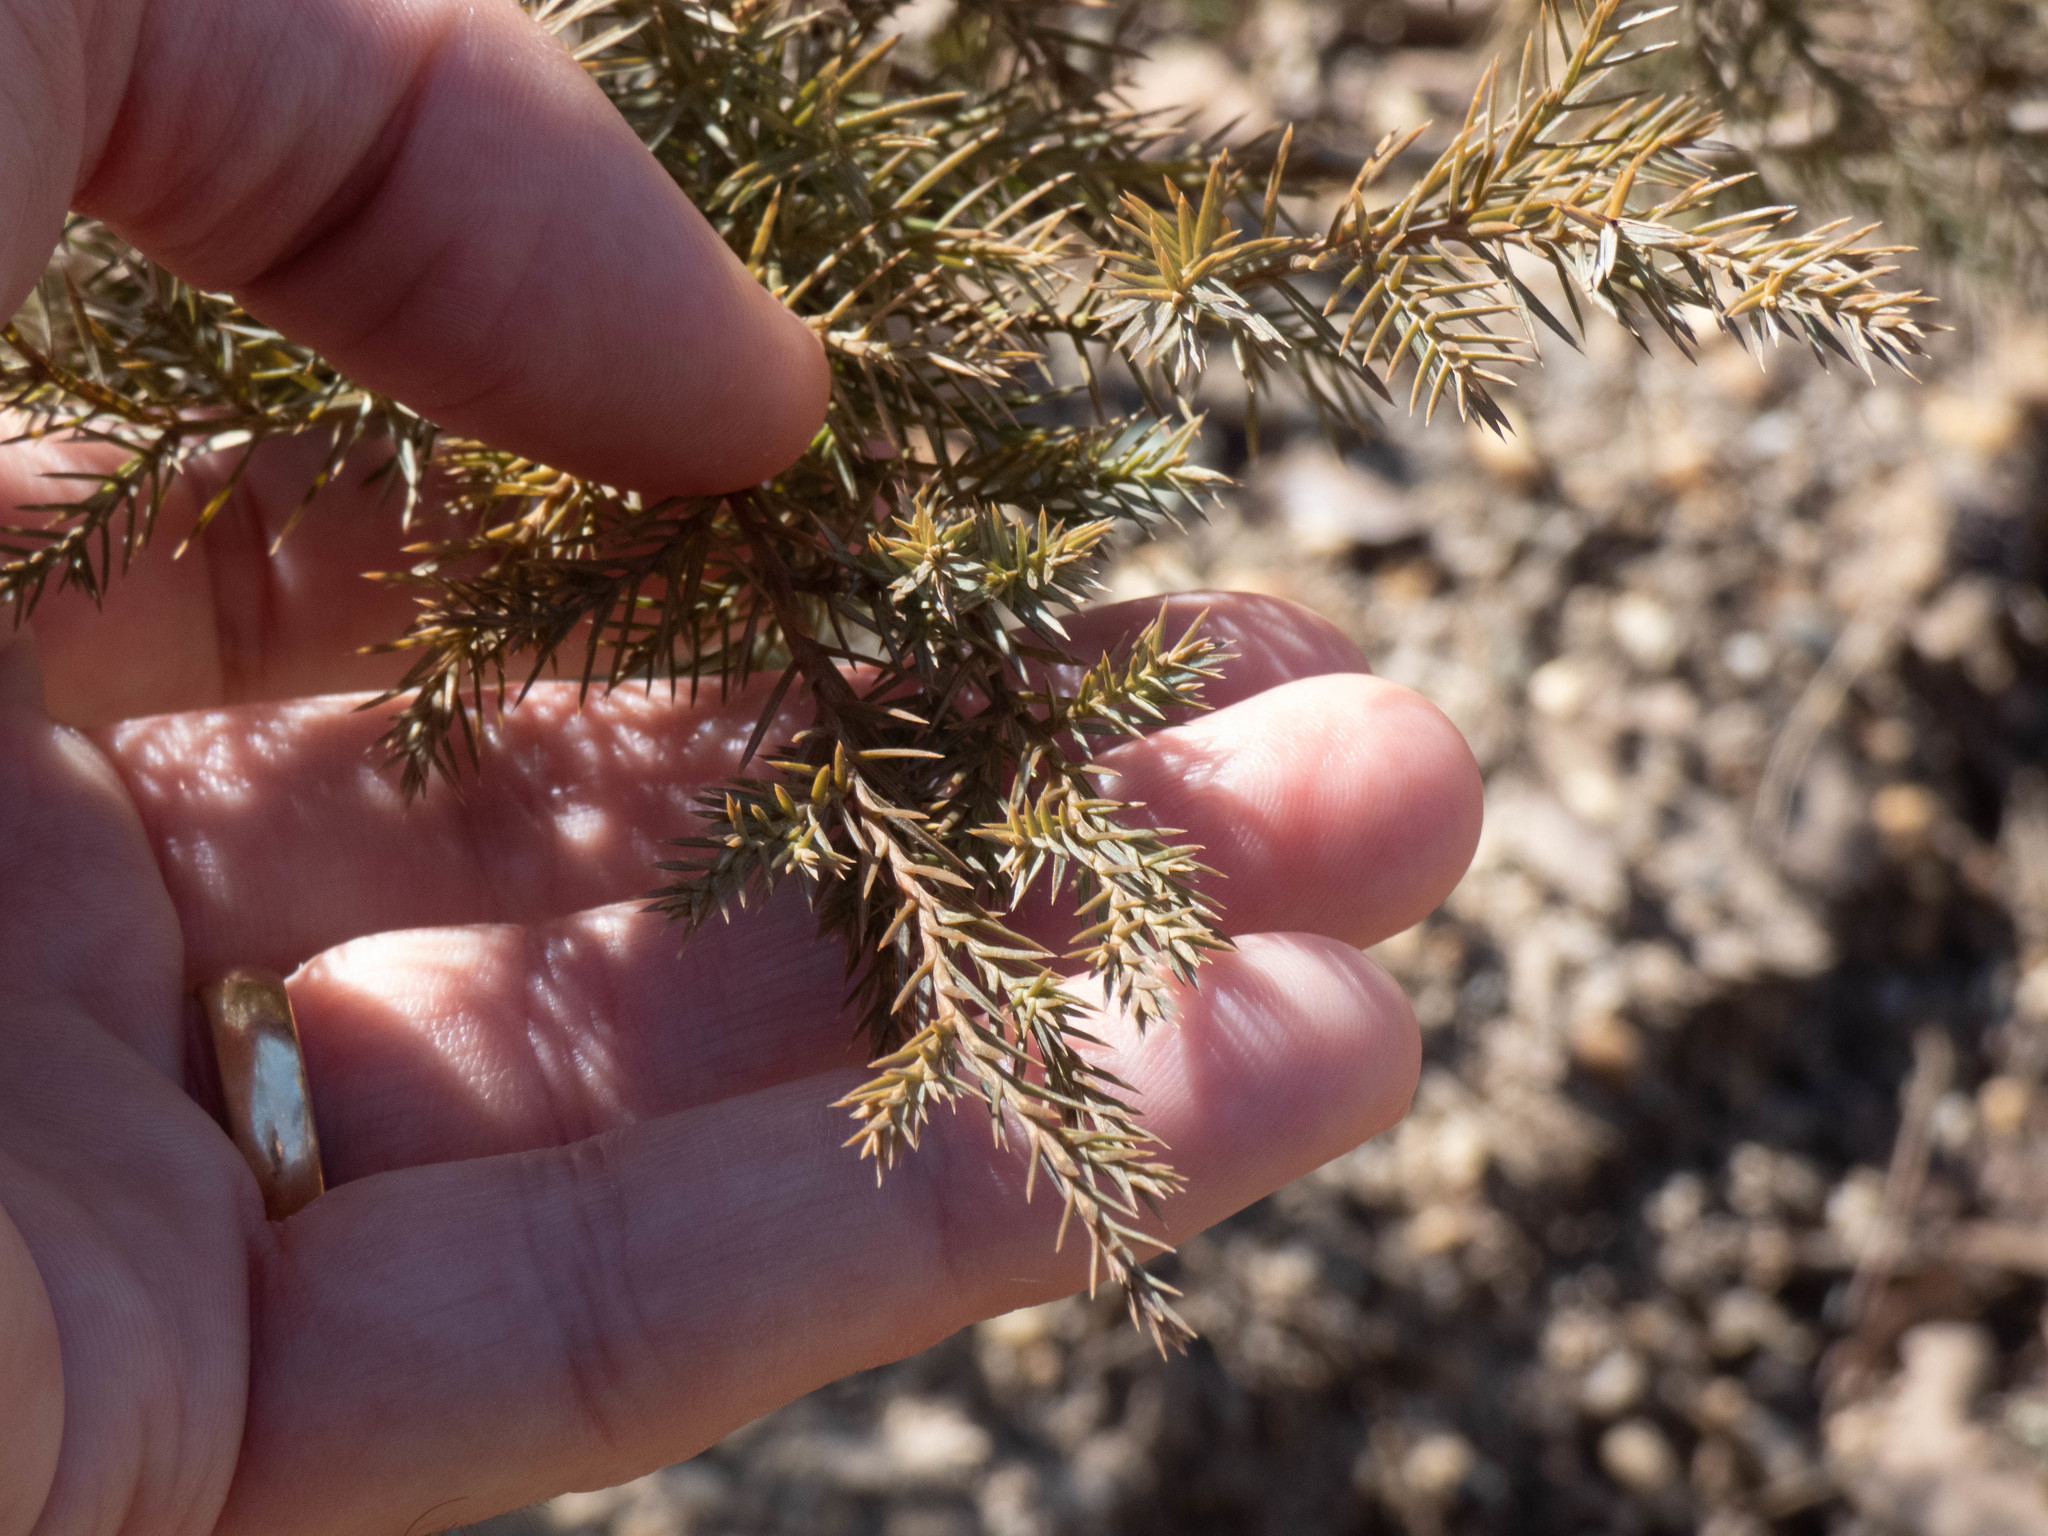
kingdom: Plantae
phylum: Tracheophyta
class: Pinopsida
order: Pinales
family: Cupressaceae
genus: Juniperus
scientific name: Juniperus virginiana
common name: Red juniper
